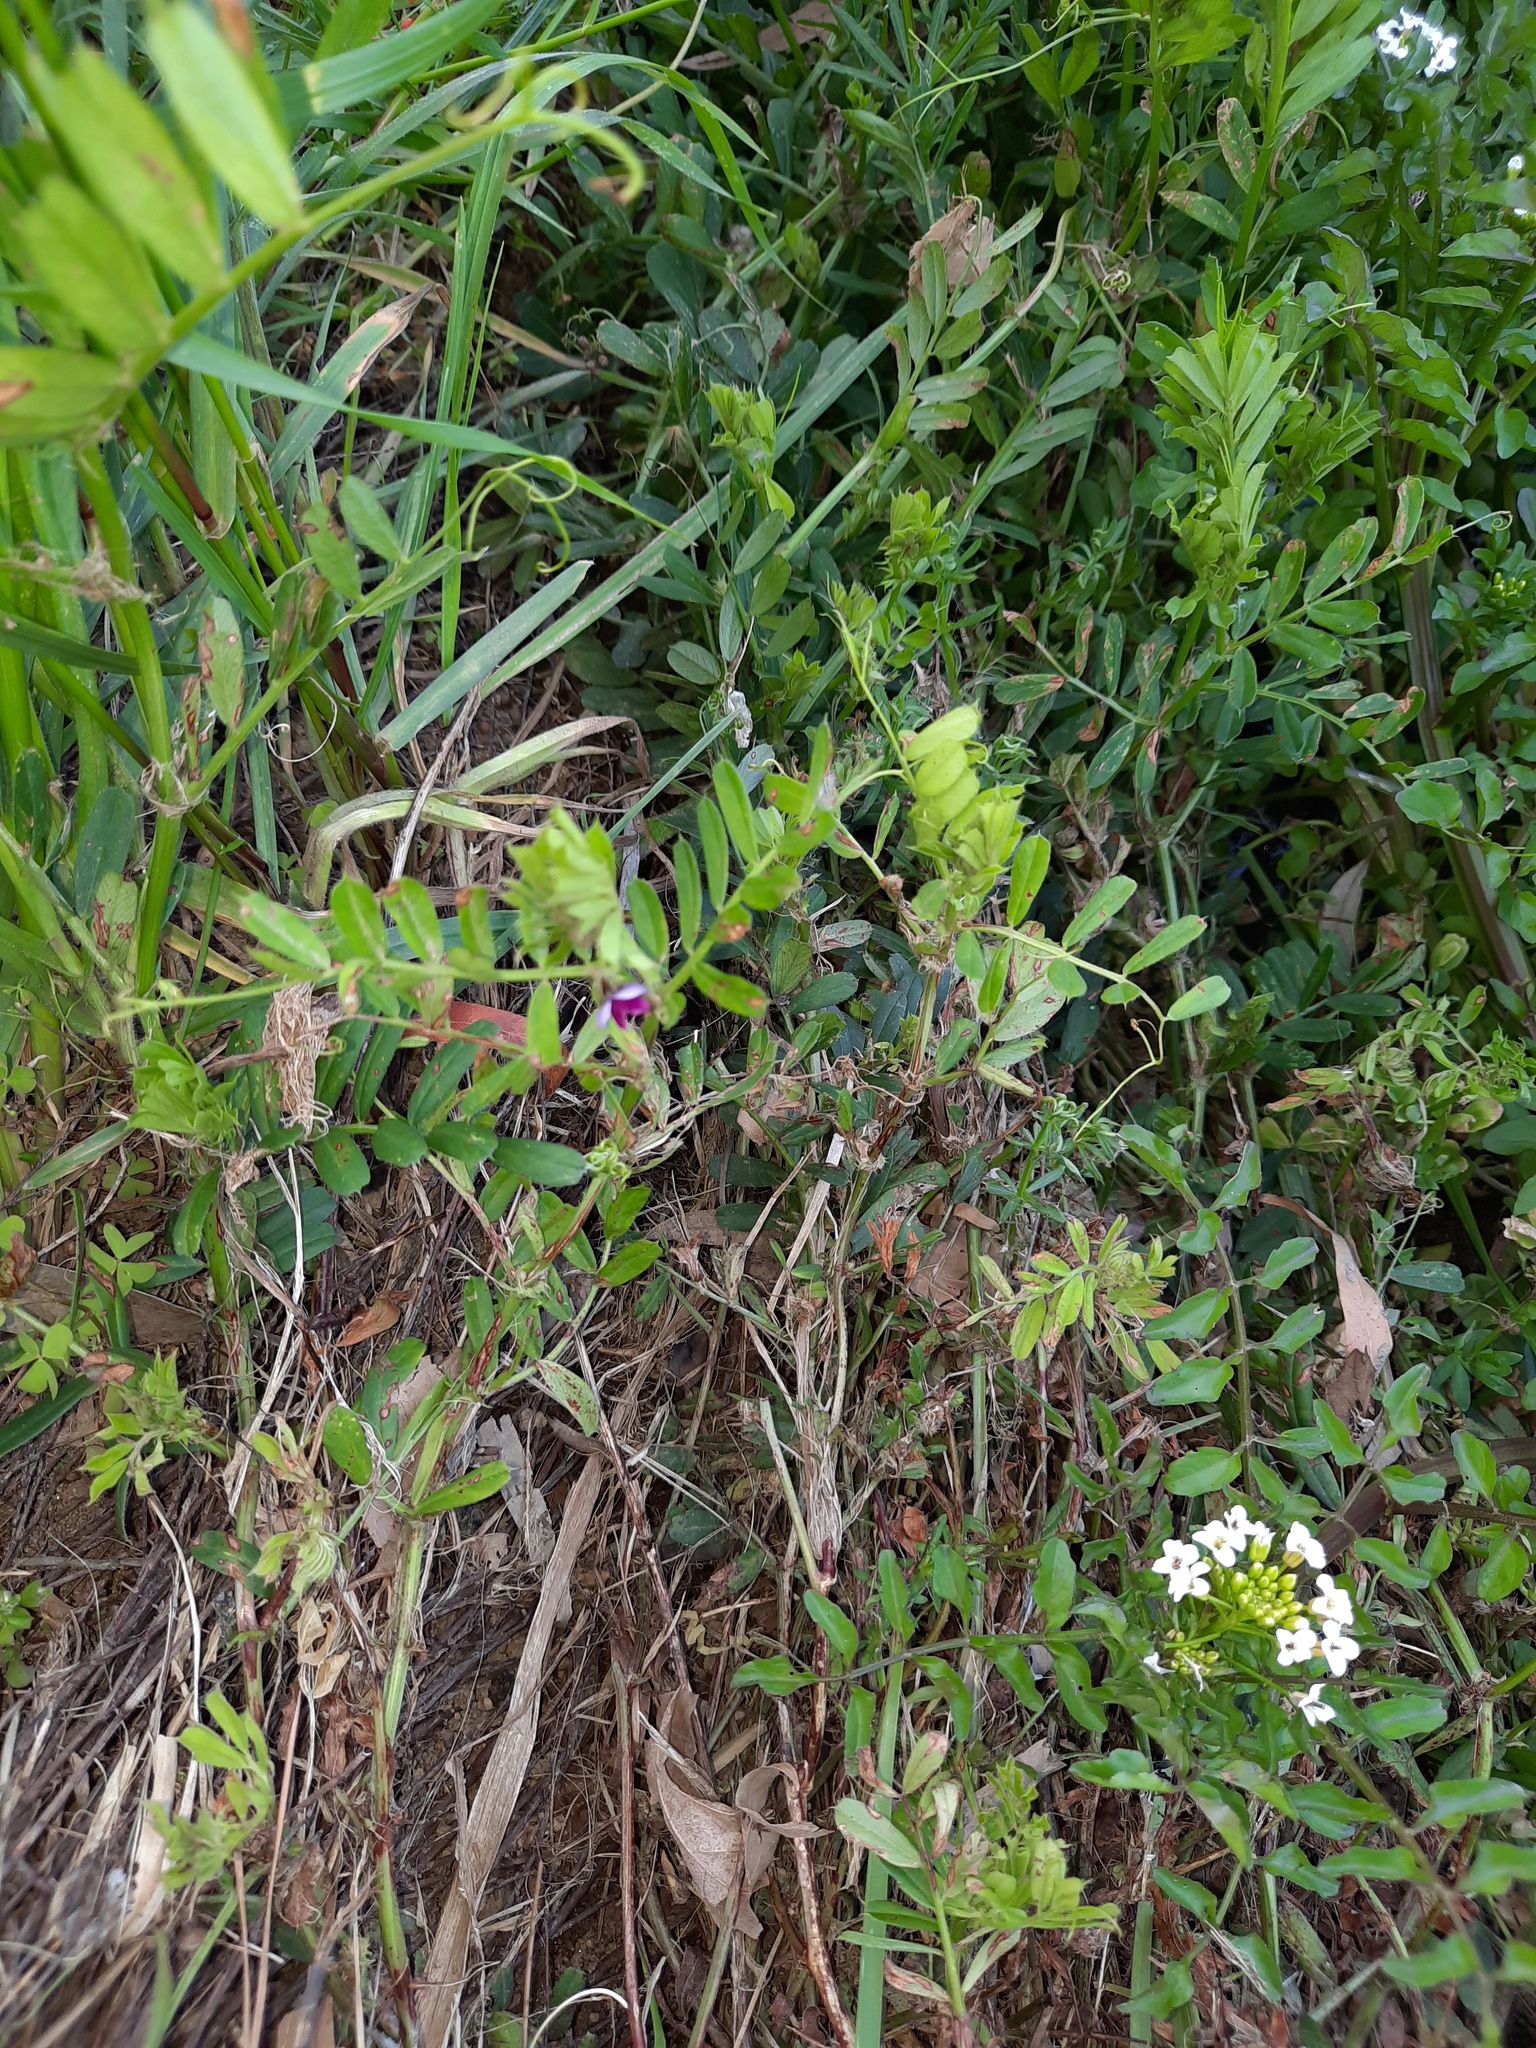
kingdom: Plantae
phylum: Tracheophyta
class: Magnoliopsida
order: Fabales
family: Fabaceae
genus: Vicia
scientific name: Vicia sativa
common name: Garden vetch
